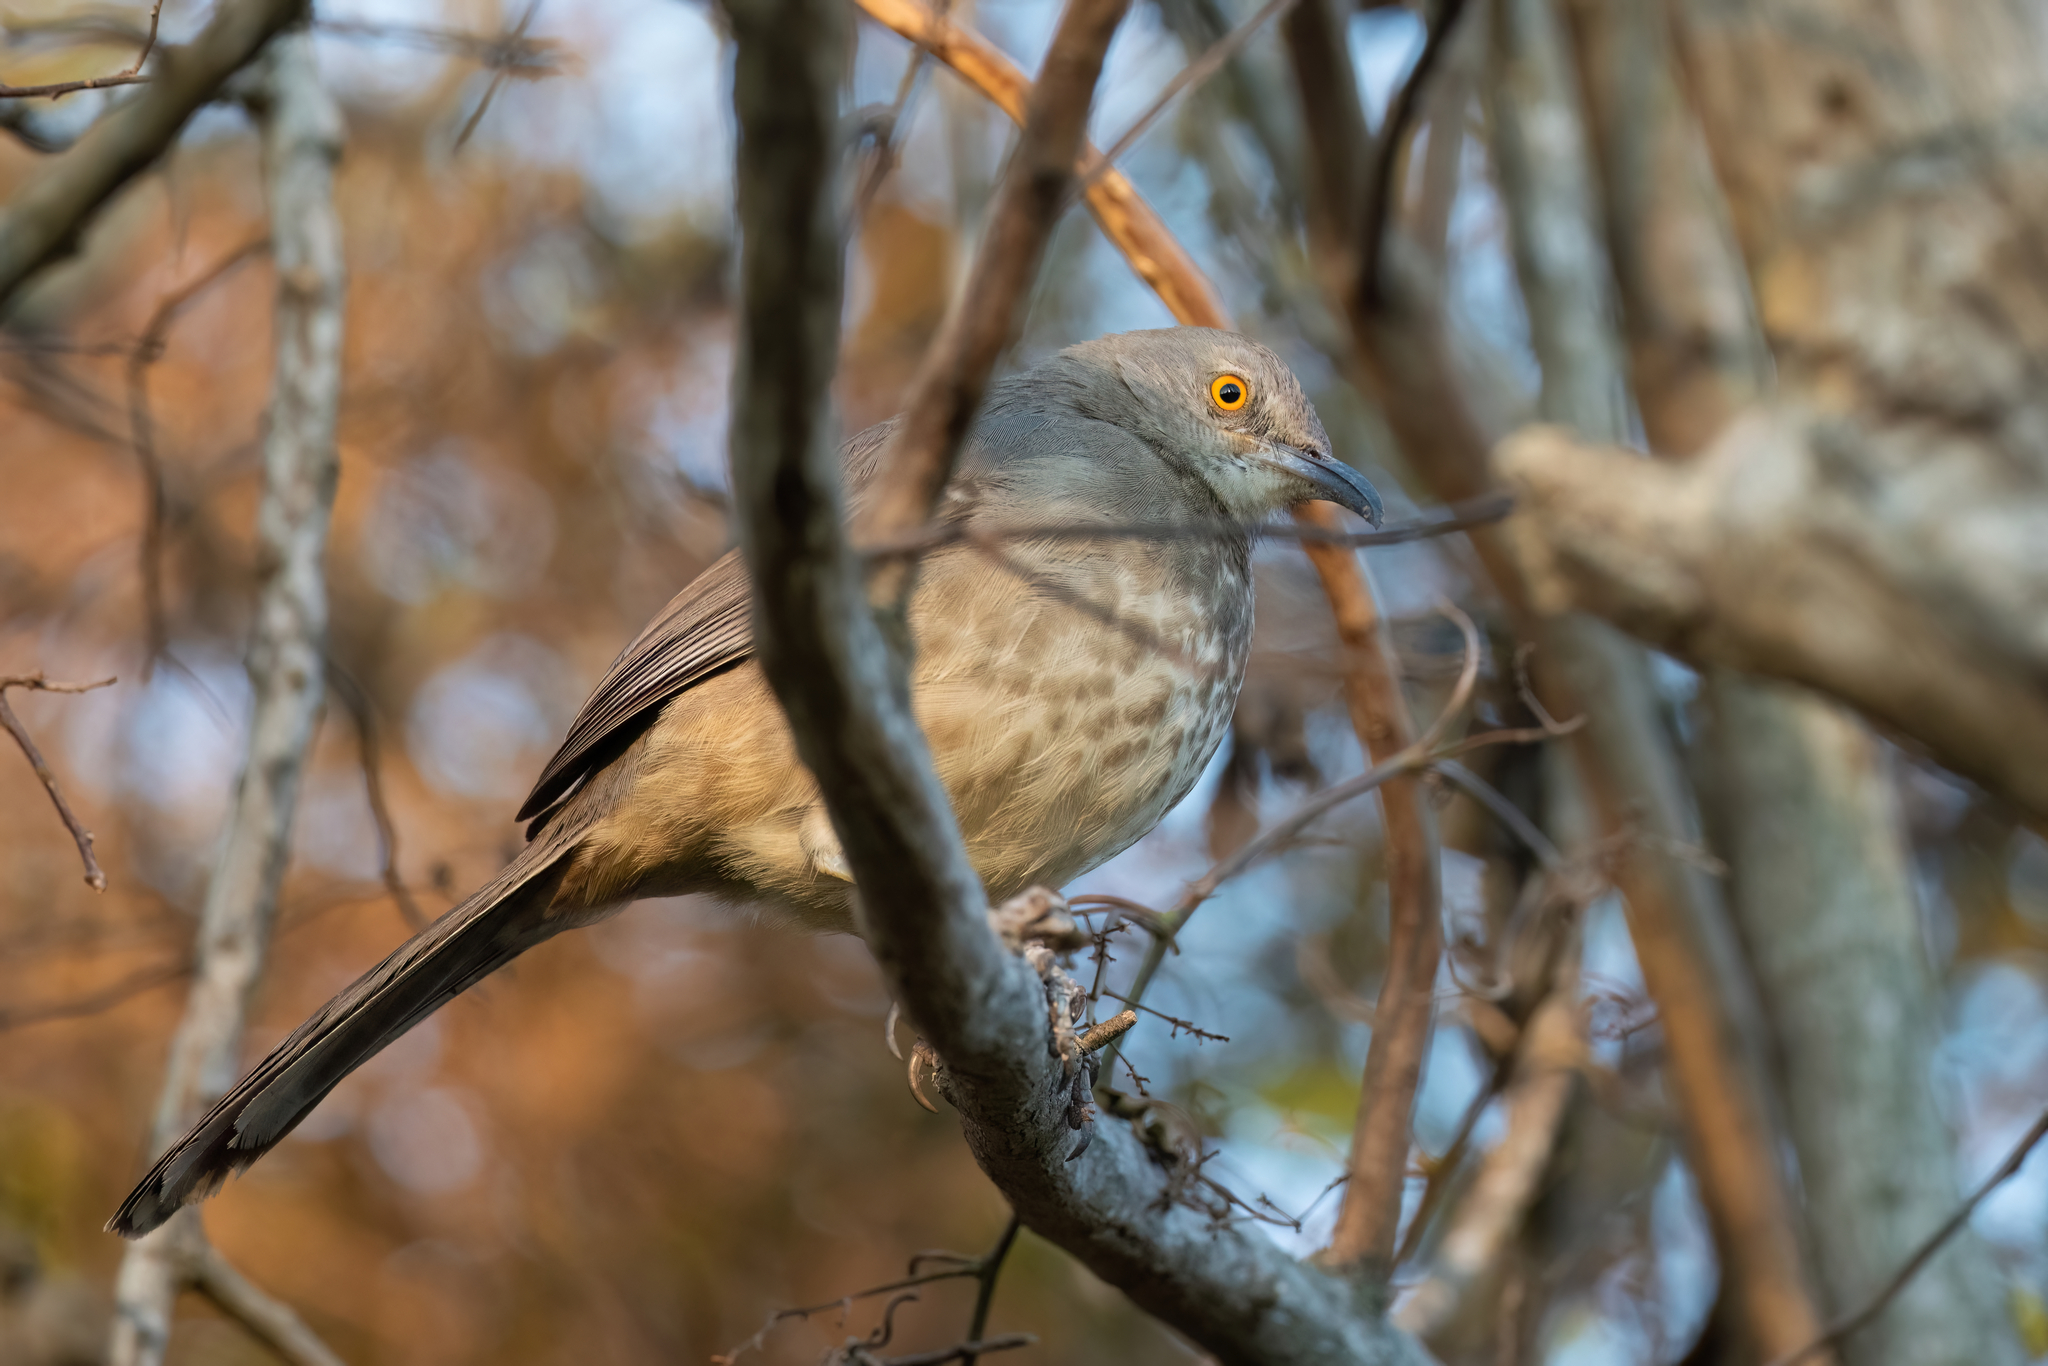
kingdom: Animalia
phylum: Chordata
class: Aves
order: Passeriformes
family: Mimidae
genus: Toxostoma
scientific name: Toxostoma curvirostre
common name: Curve-billed thrasher
